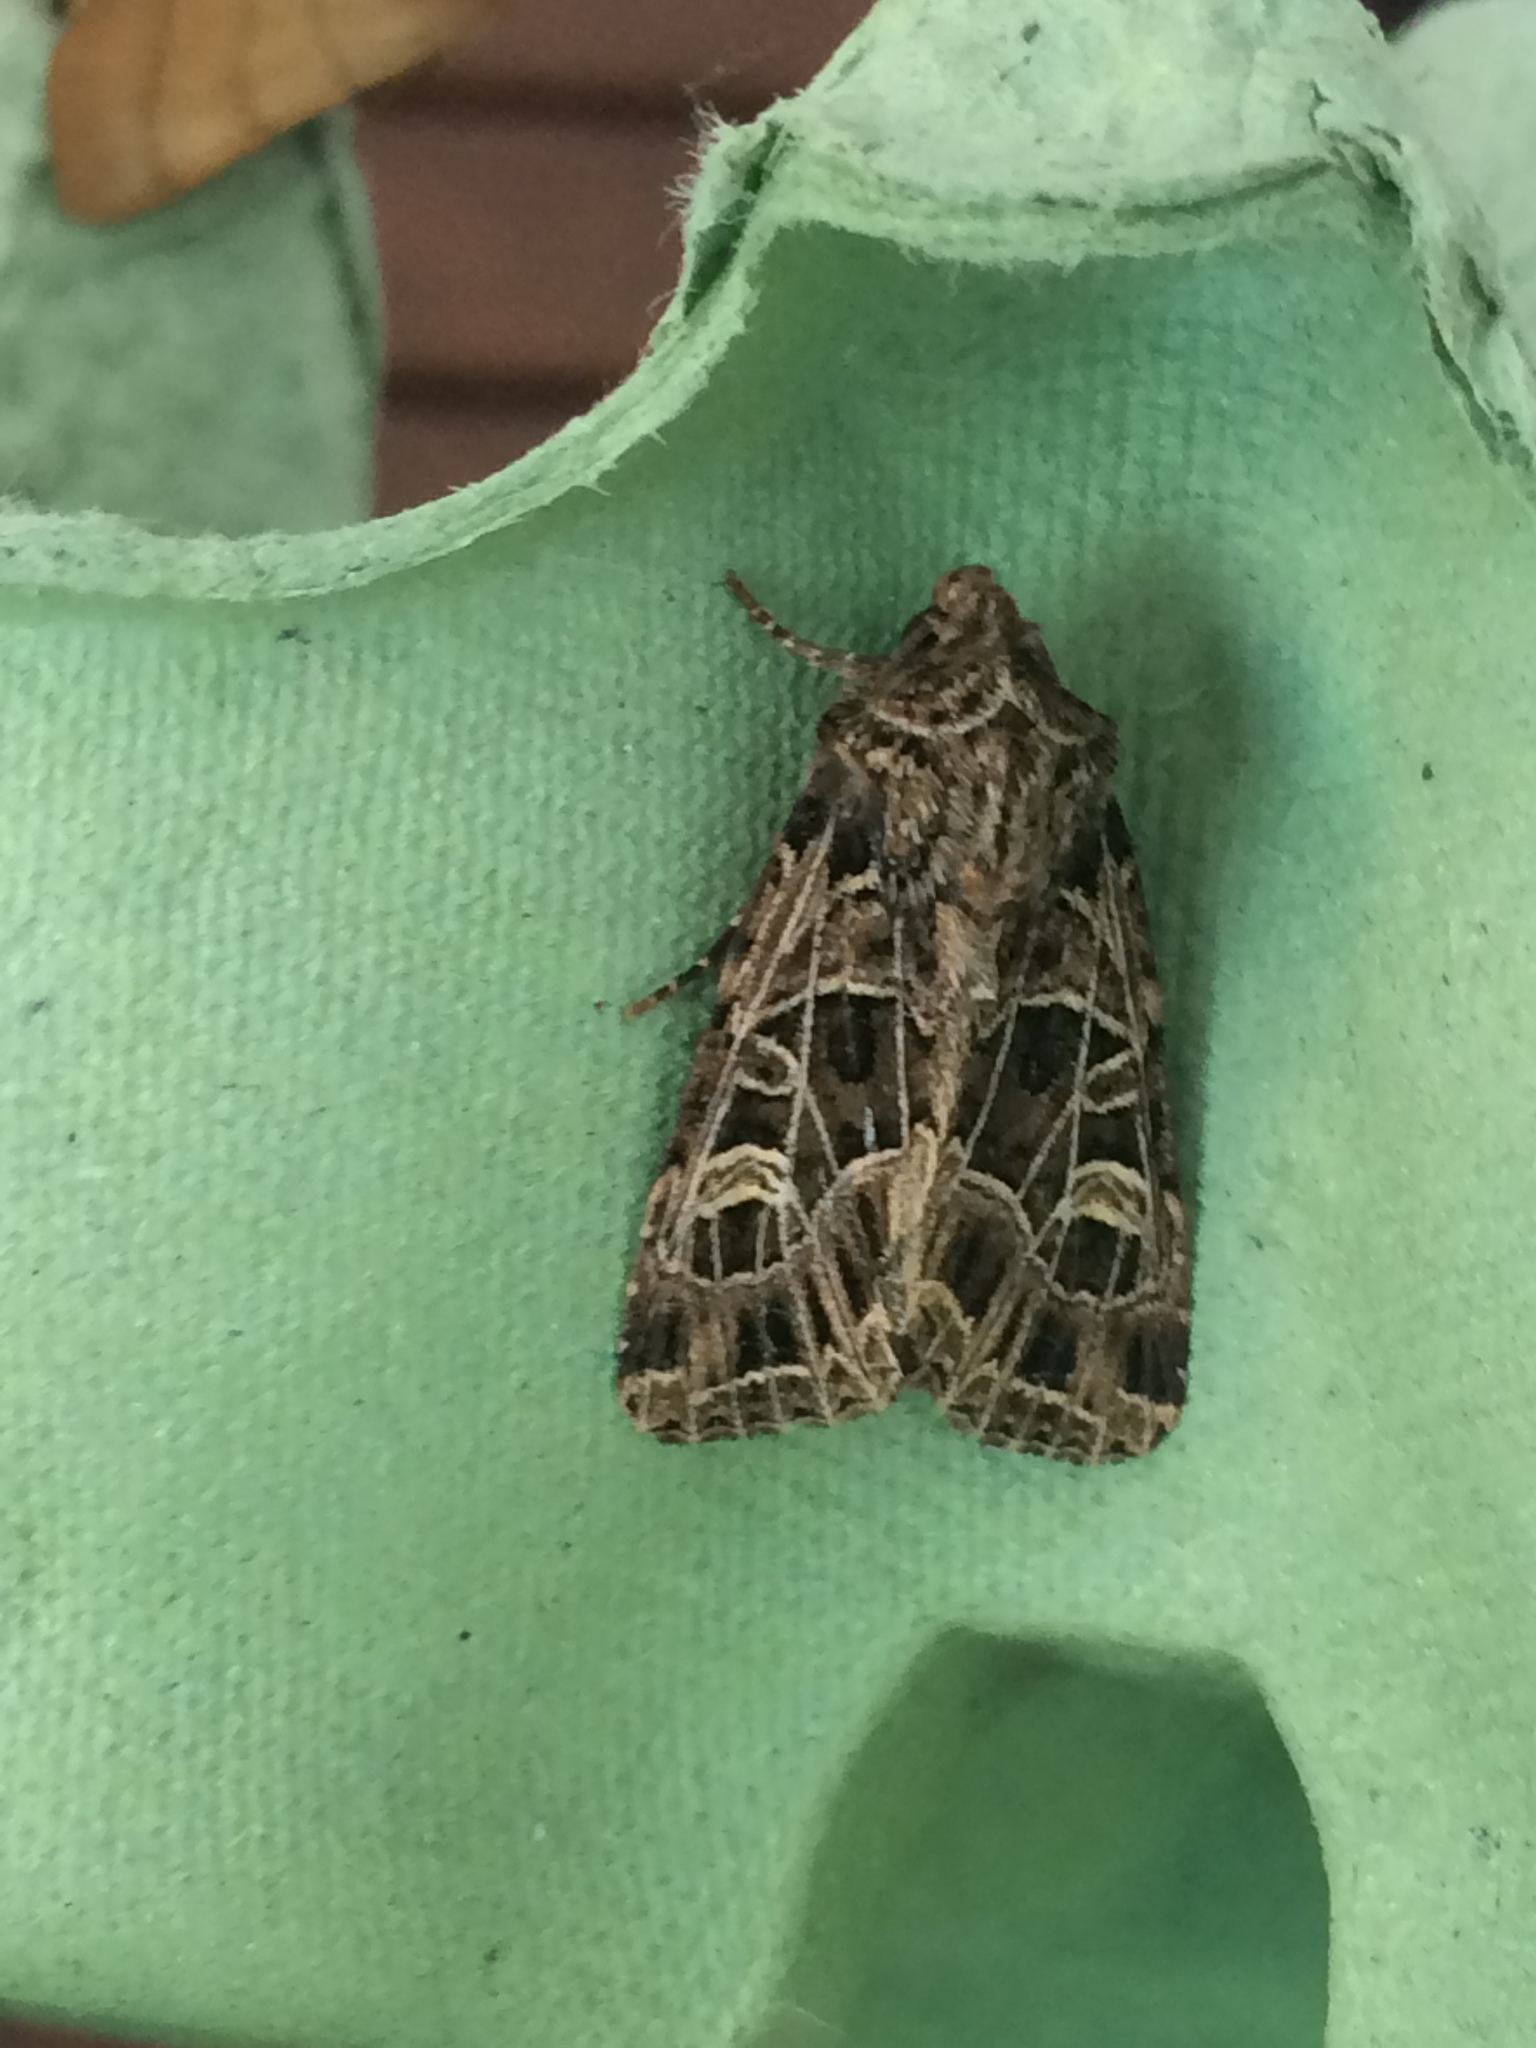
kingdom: Animalia
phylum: Arthropoda
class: Insecta
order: Lepidoptera
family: Noctuidae
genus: Sideridis
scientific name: Sideridis reticulata
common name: Bordered gothic
